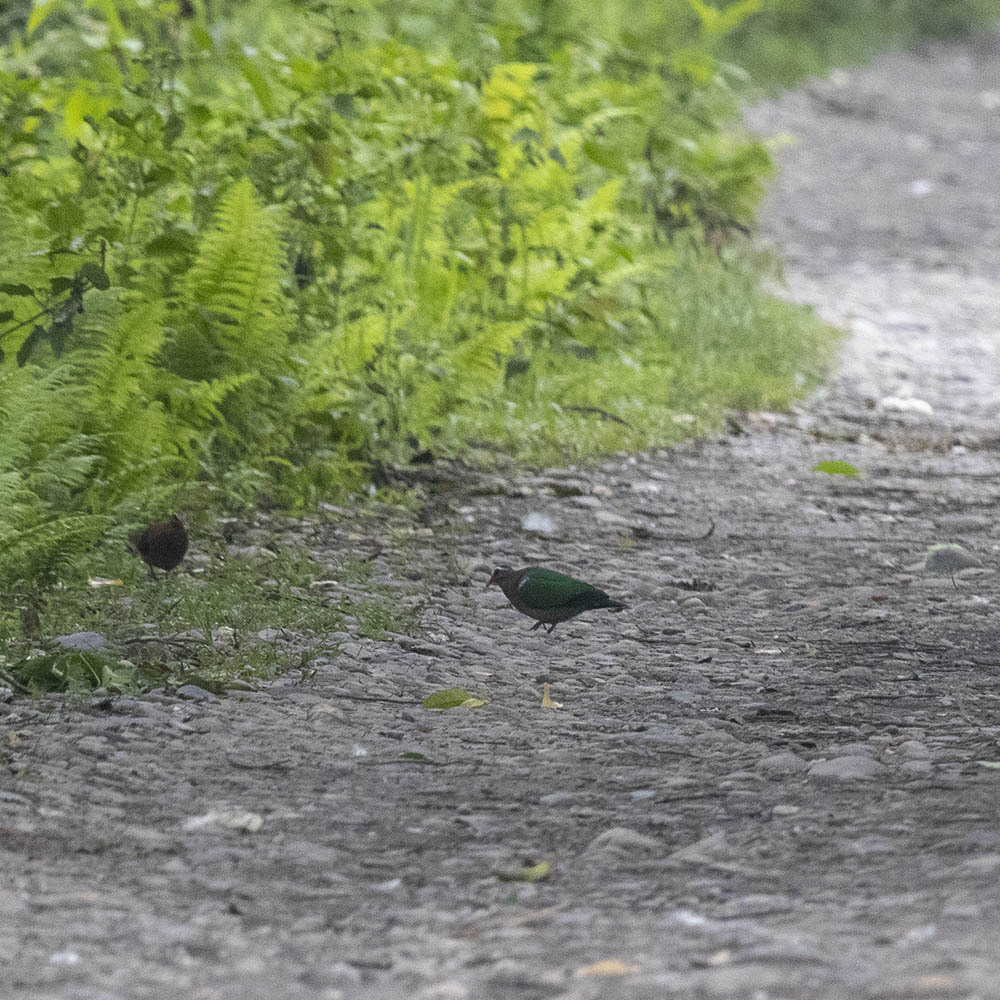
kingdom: Animalia
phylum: Chordata
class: Aves
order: Columbiformes
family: Columbidae
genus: Chalcophaps
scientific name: Chalcophaps indica
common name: Common emerald dove
